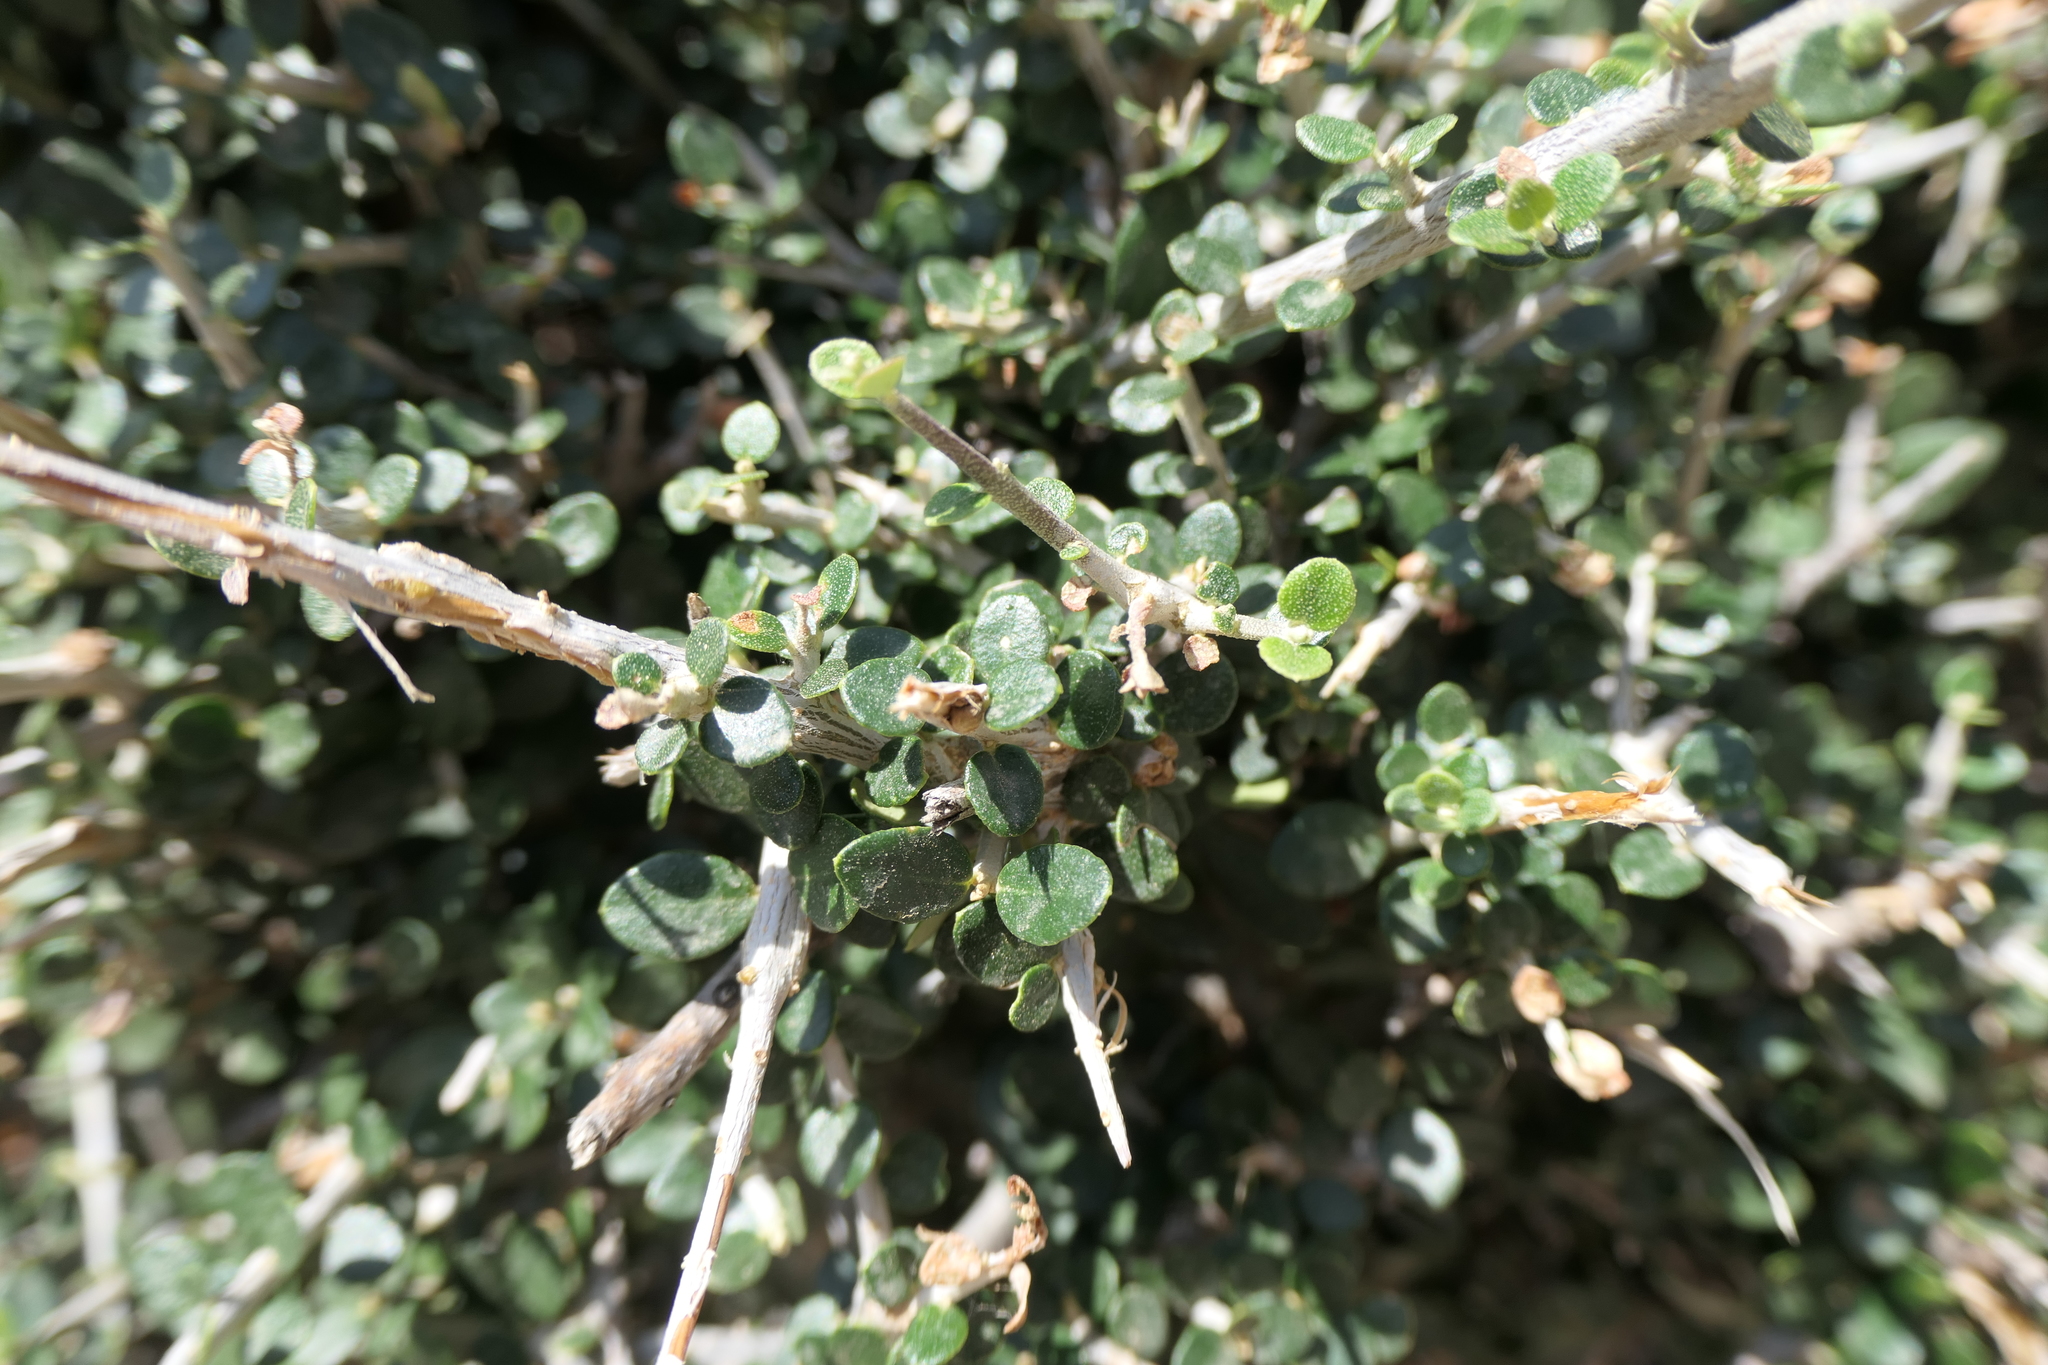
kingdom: Plantae
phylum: Tracheophyta
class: Magnoliopsida
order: Lamiales
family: Oleaceae
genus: Olea
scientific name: Olea europaea
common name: Olive
